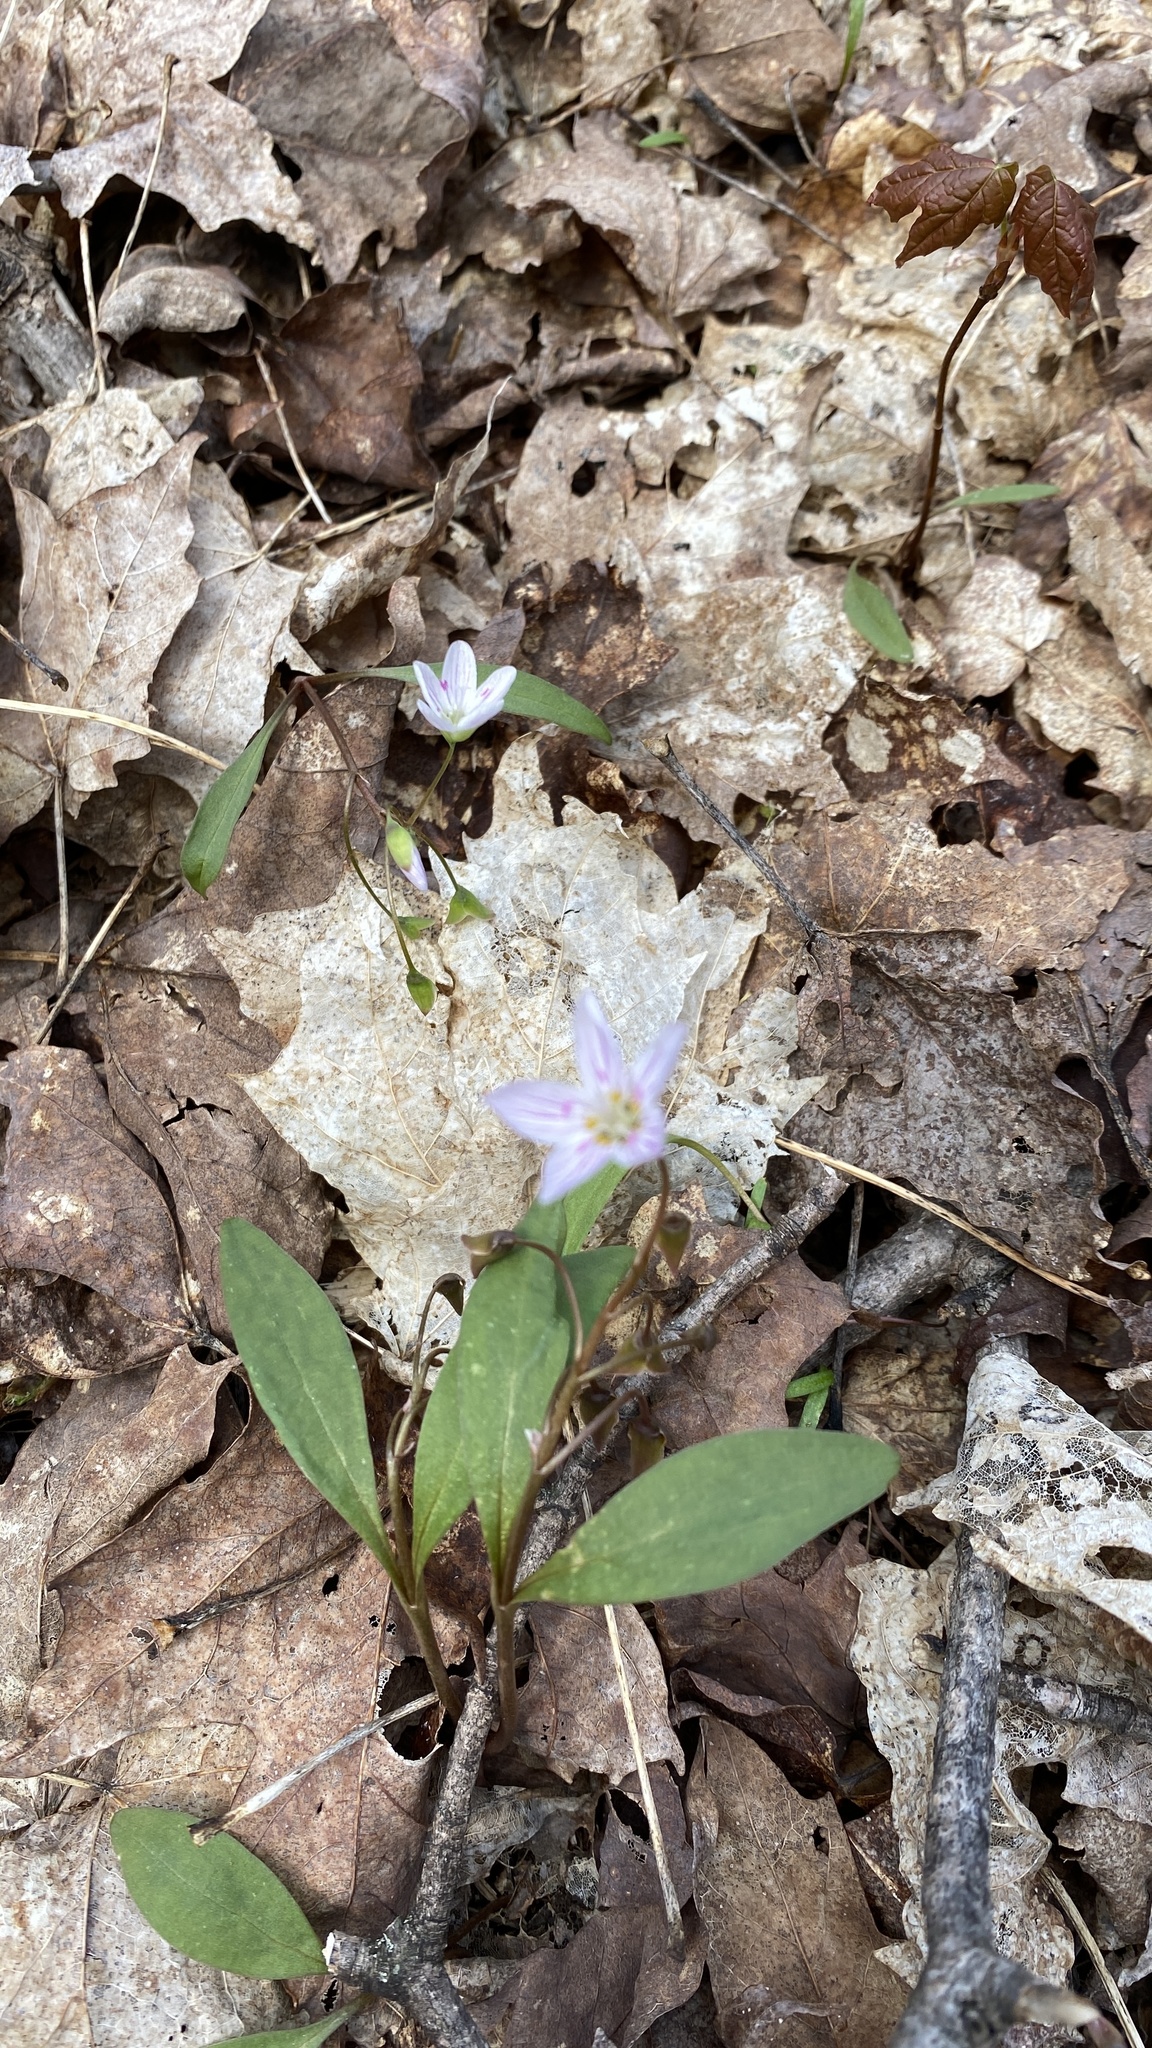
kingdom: Plantae
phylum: Tracheophyta
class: Magnoliopsida
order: Caryophyllales
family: Montiaceae
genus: Claytonia
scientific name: Claytonia caroliniana
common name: Carolina spring beauty
